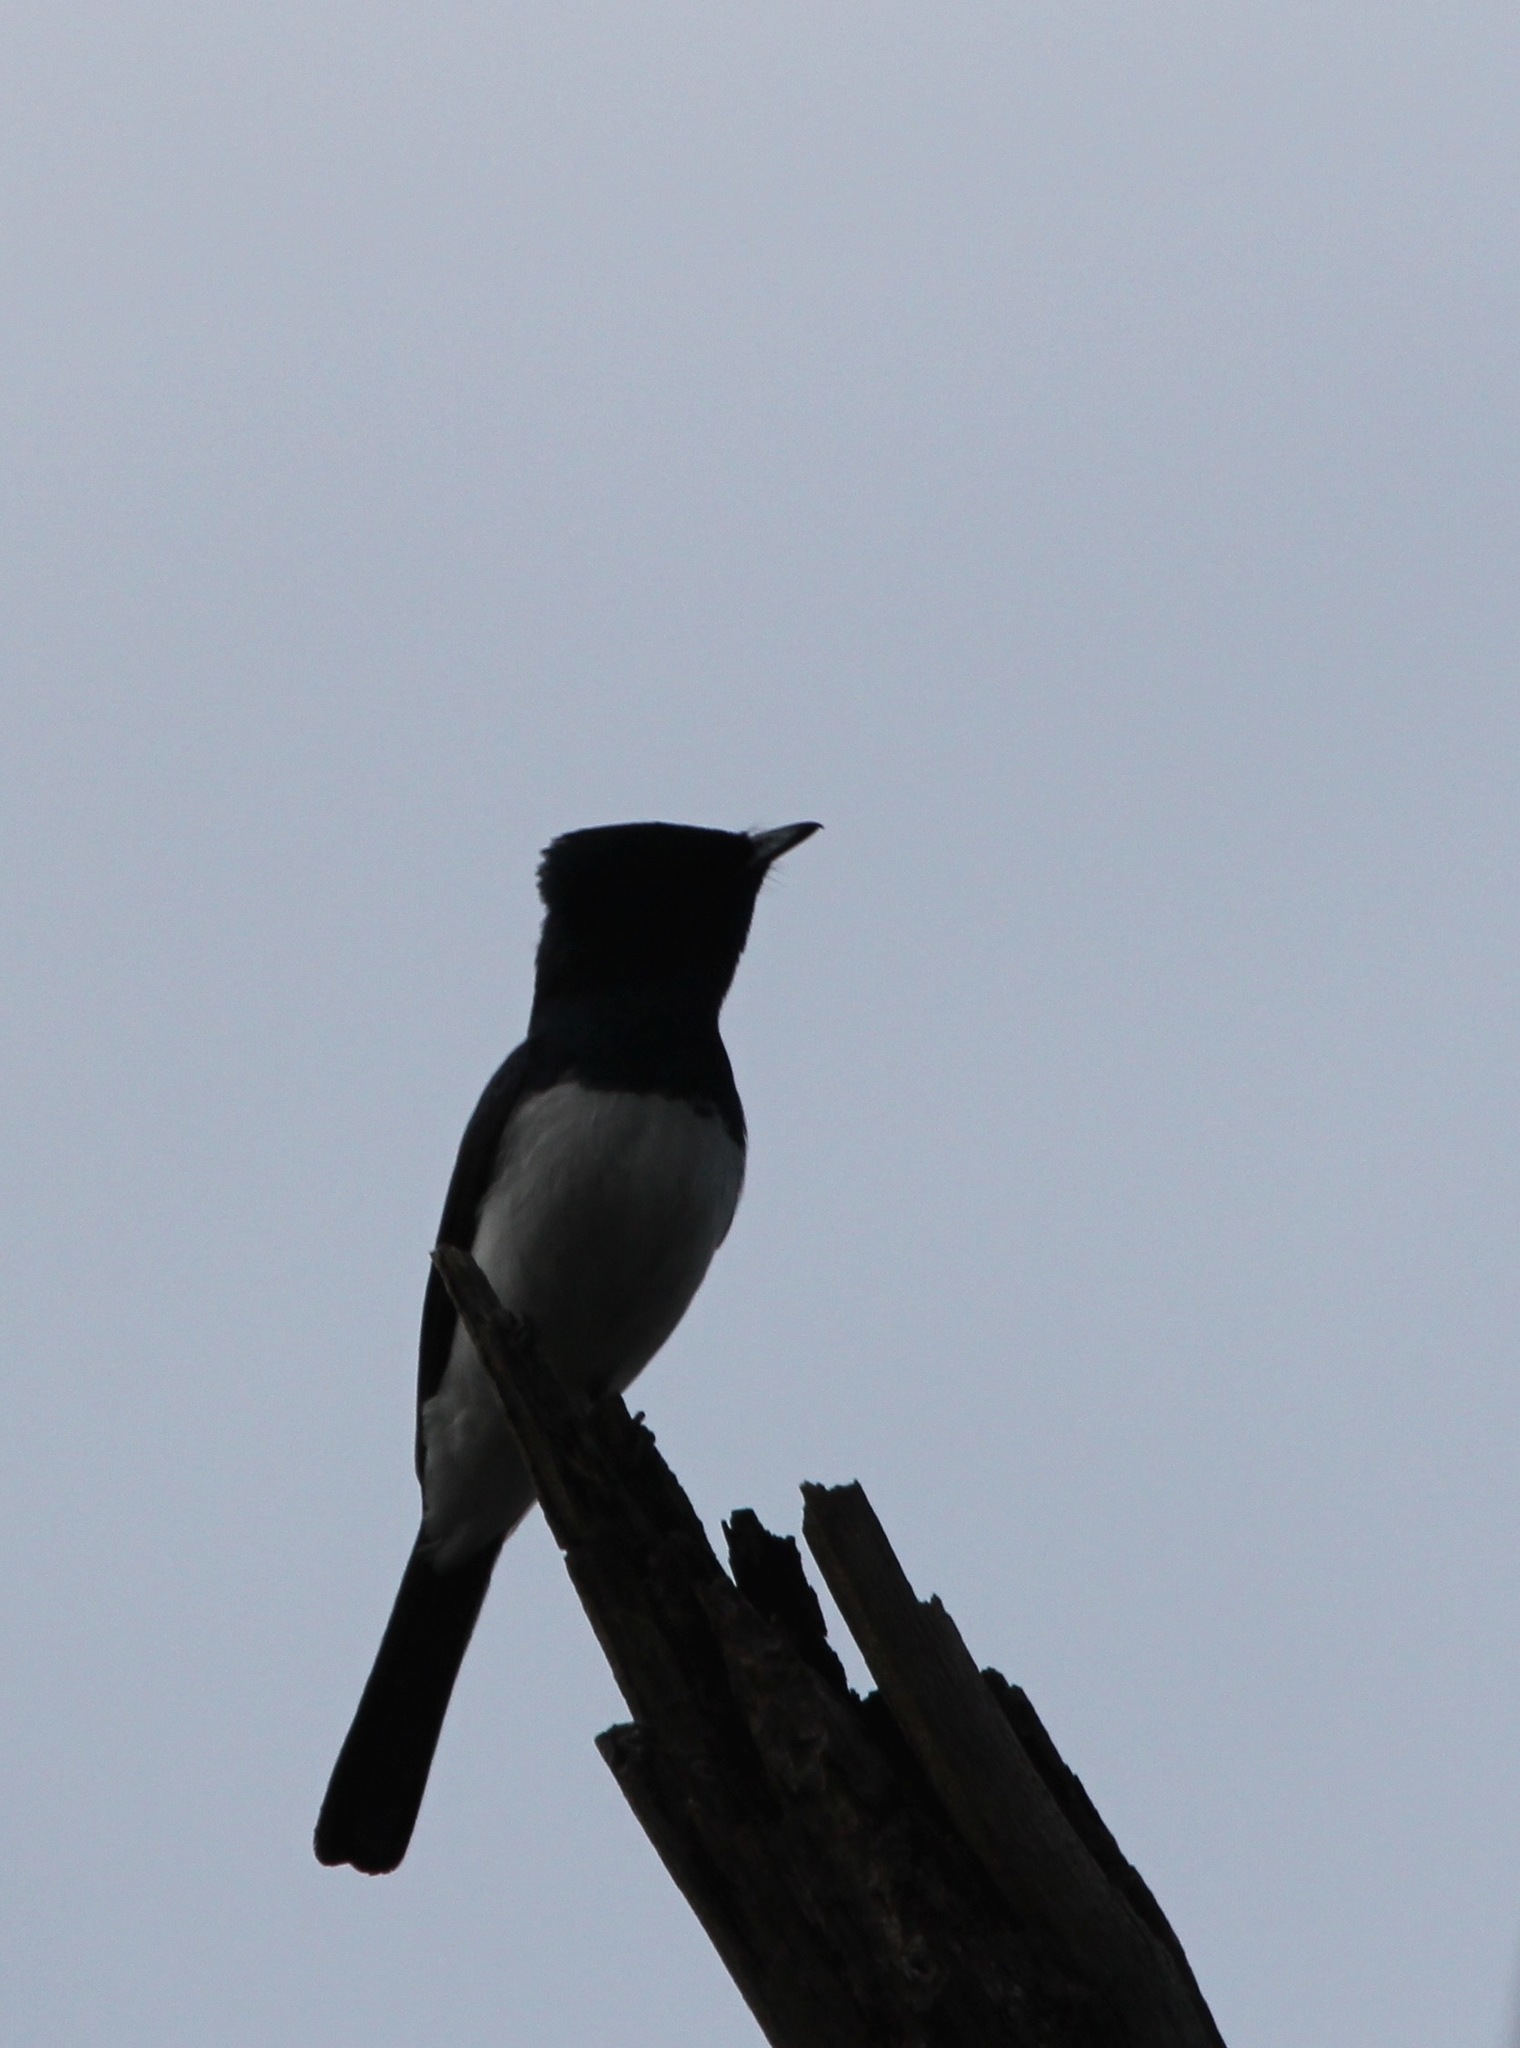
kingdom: Animalia
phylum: Chordata
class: Aves
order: Passeriformes
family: Monarchidae
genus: Myiagra
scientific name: Myiagra cyanoleuca
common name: Satin flycatcher
